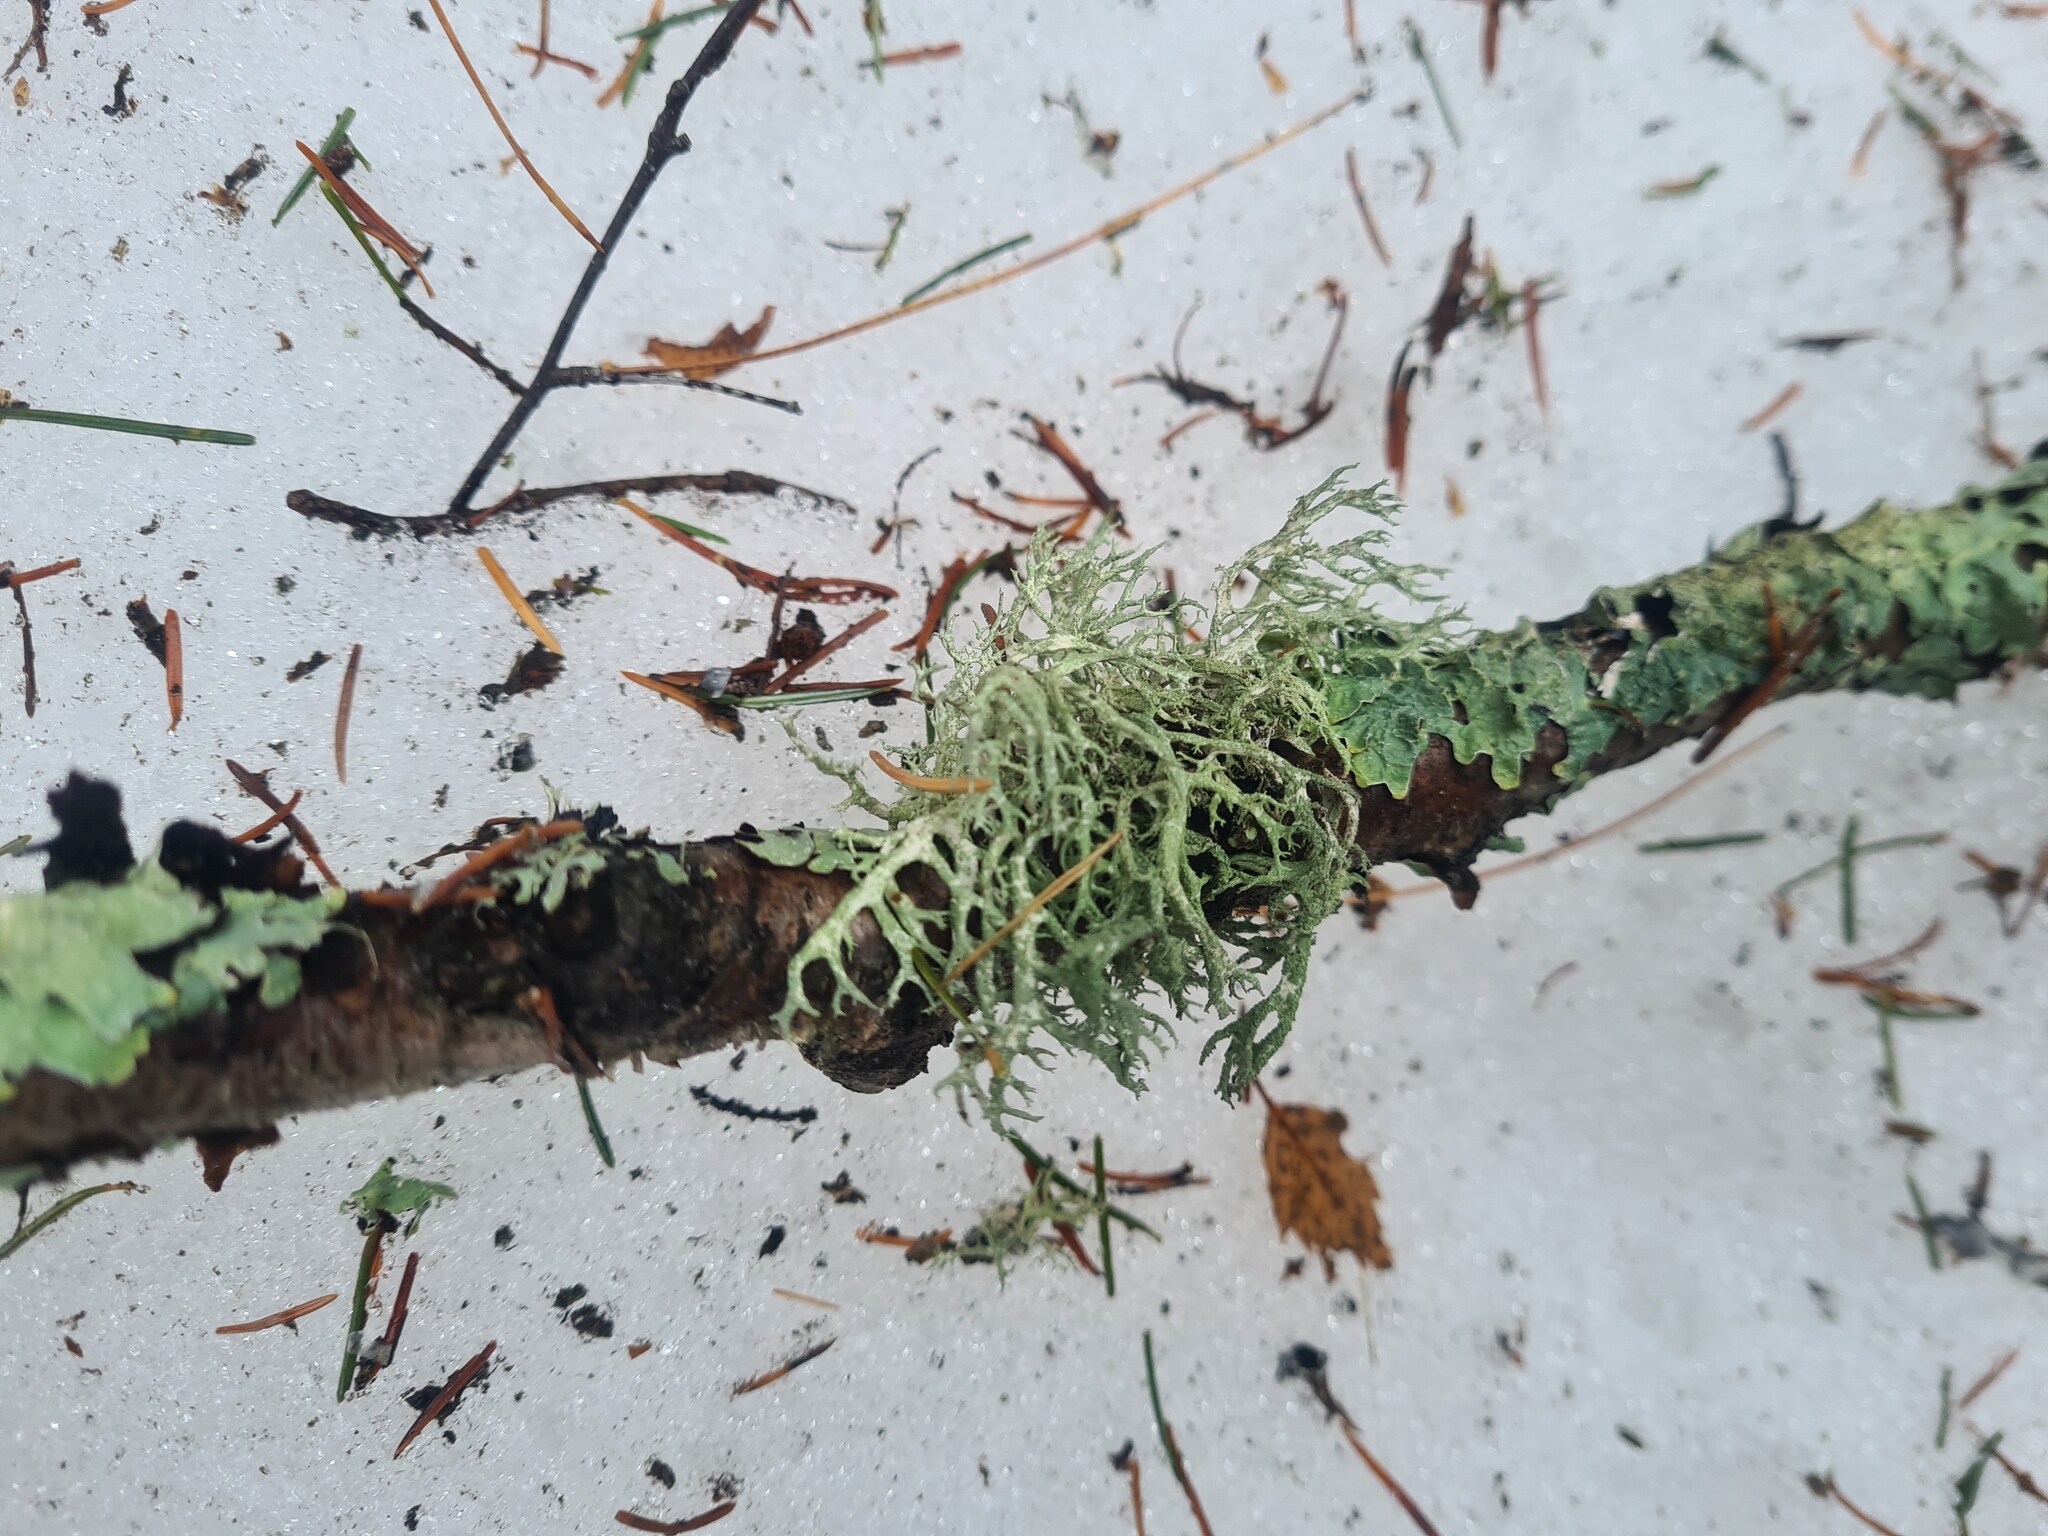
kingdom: Fungi
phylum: Ascomycota
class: Lecanoromycetes
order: Lecanorales
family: Parmeliaceae
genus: Evernia
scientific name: Evernia mesomorpha
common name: Boreal oak moss lichen
